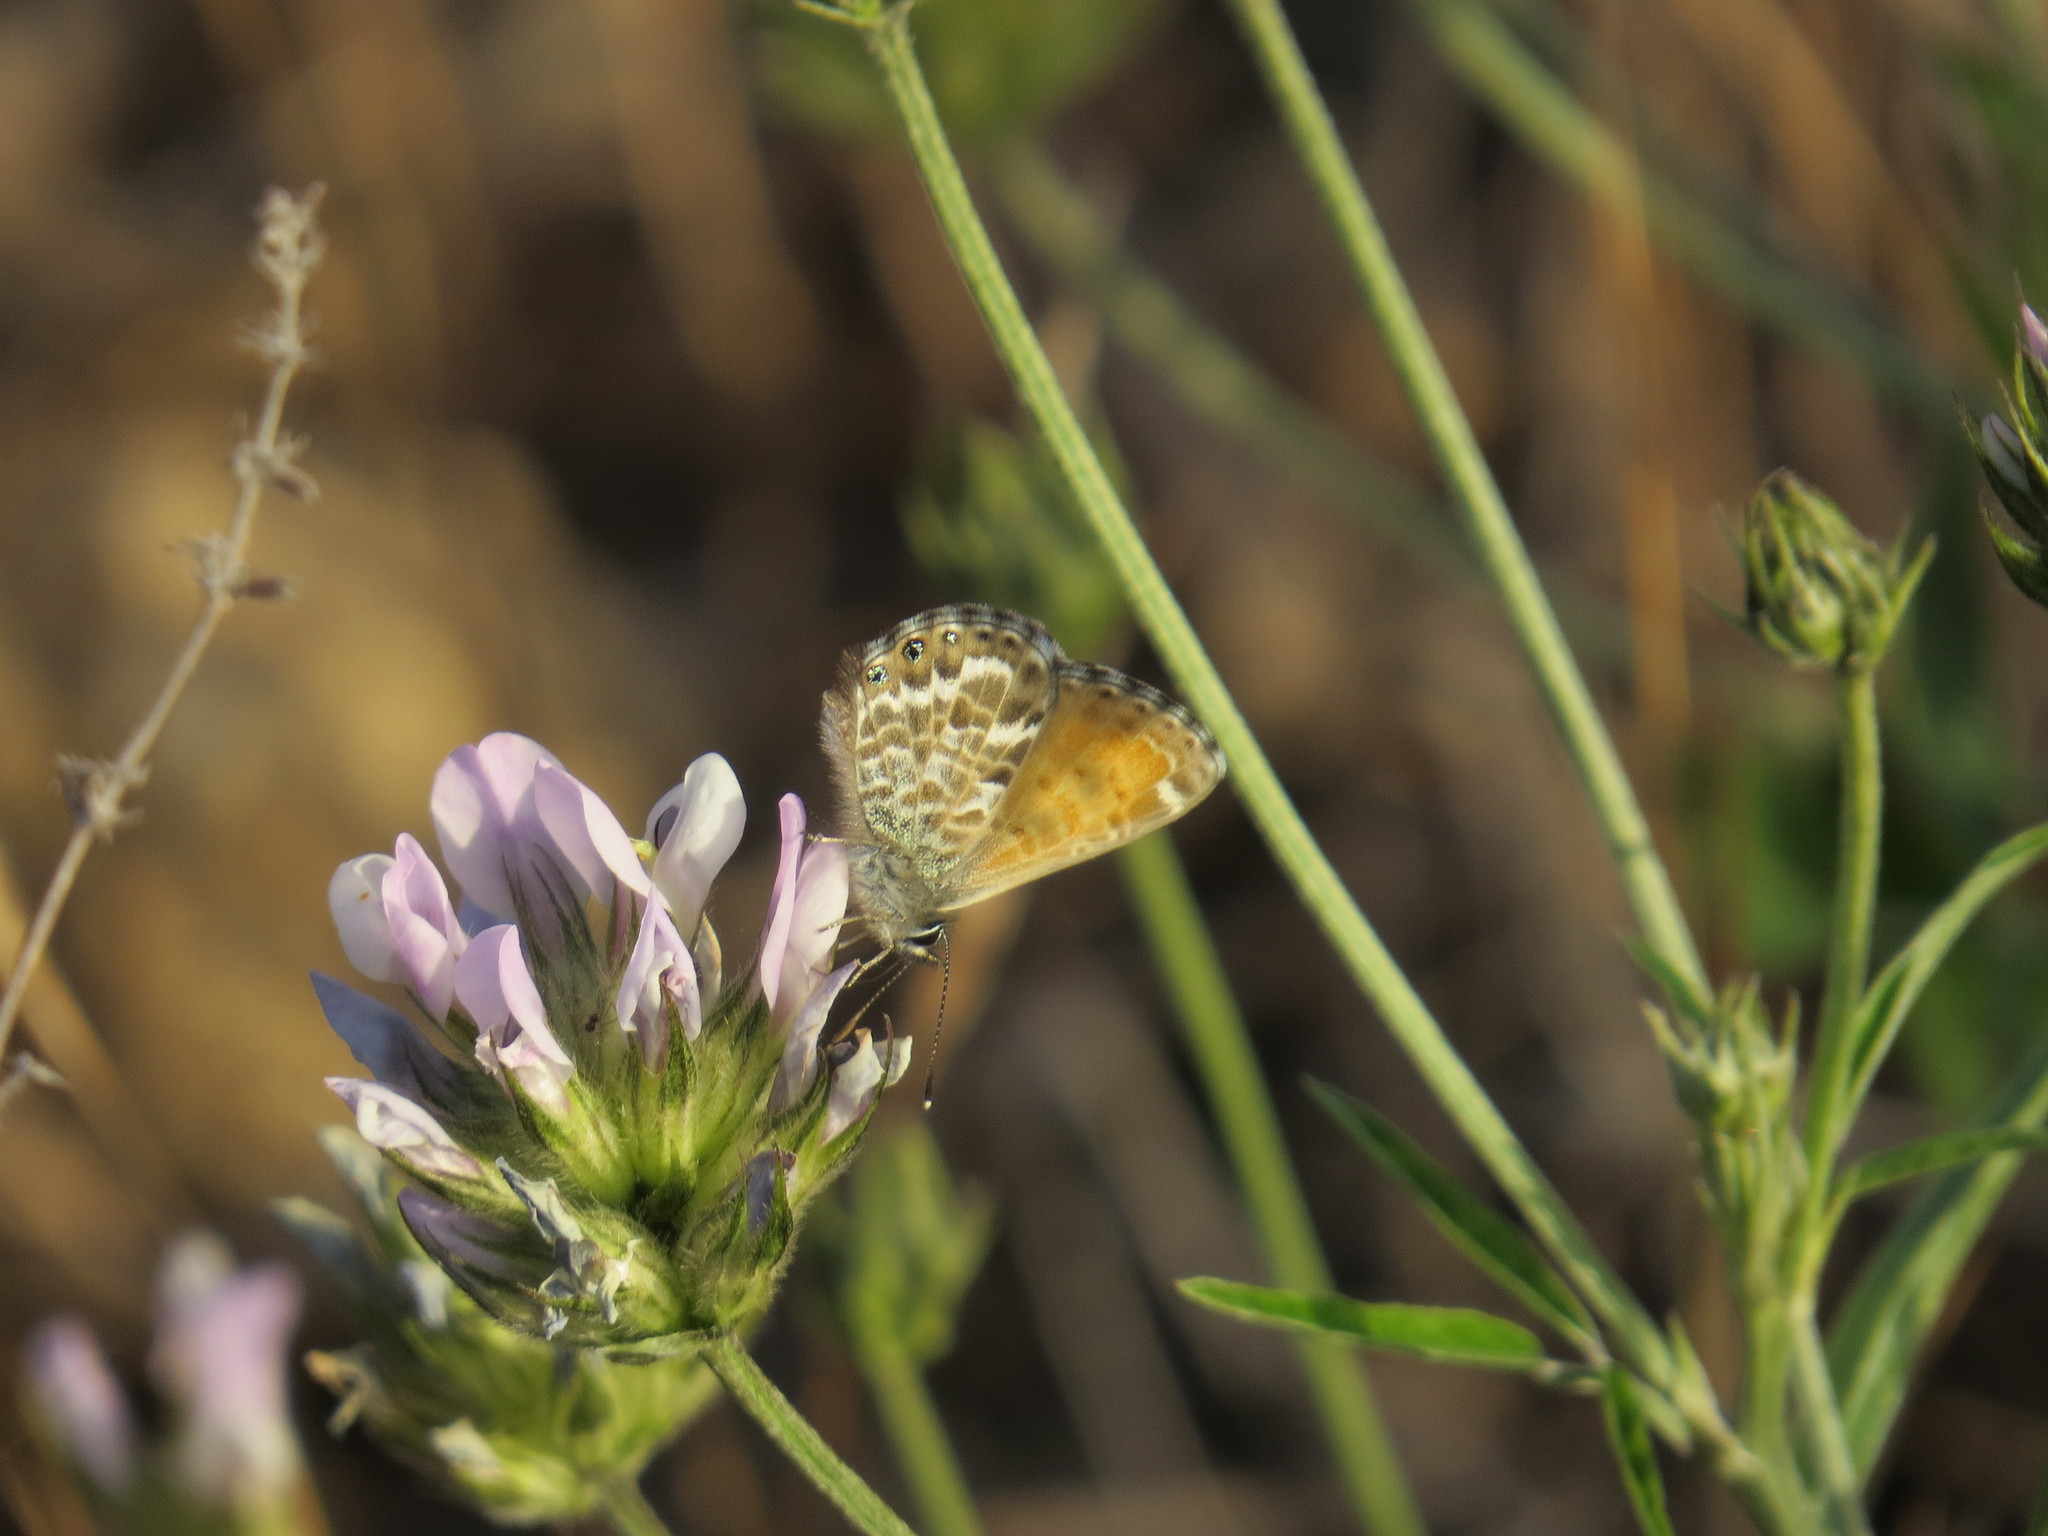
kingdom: Animalia
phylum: Arthropoda
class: Insecta
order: Lepidoptera
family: Lycaenidae
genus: Cyclyrius
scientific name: Cyclyrius webbianus
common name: Canary blue
